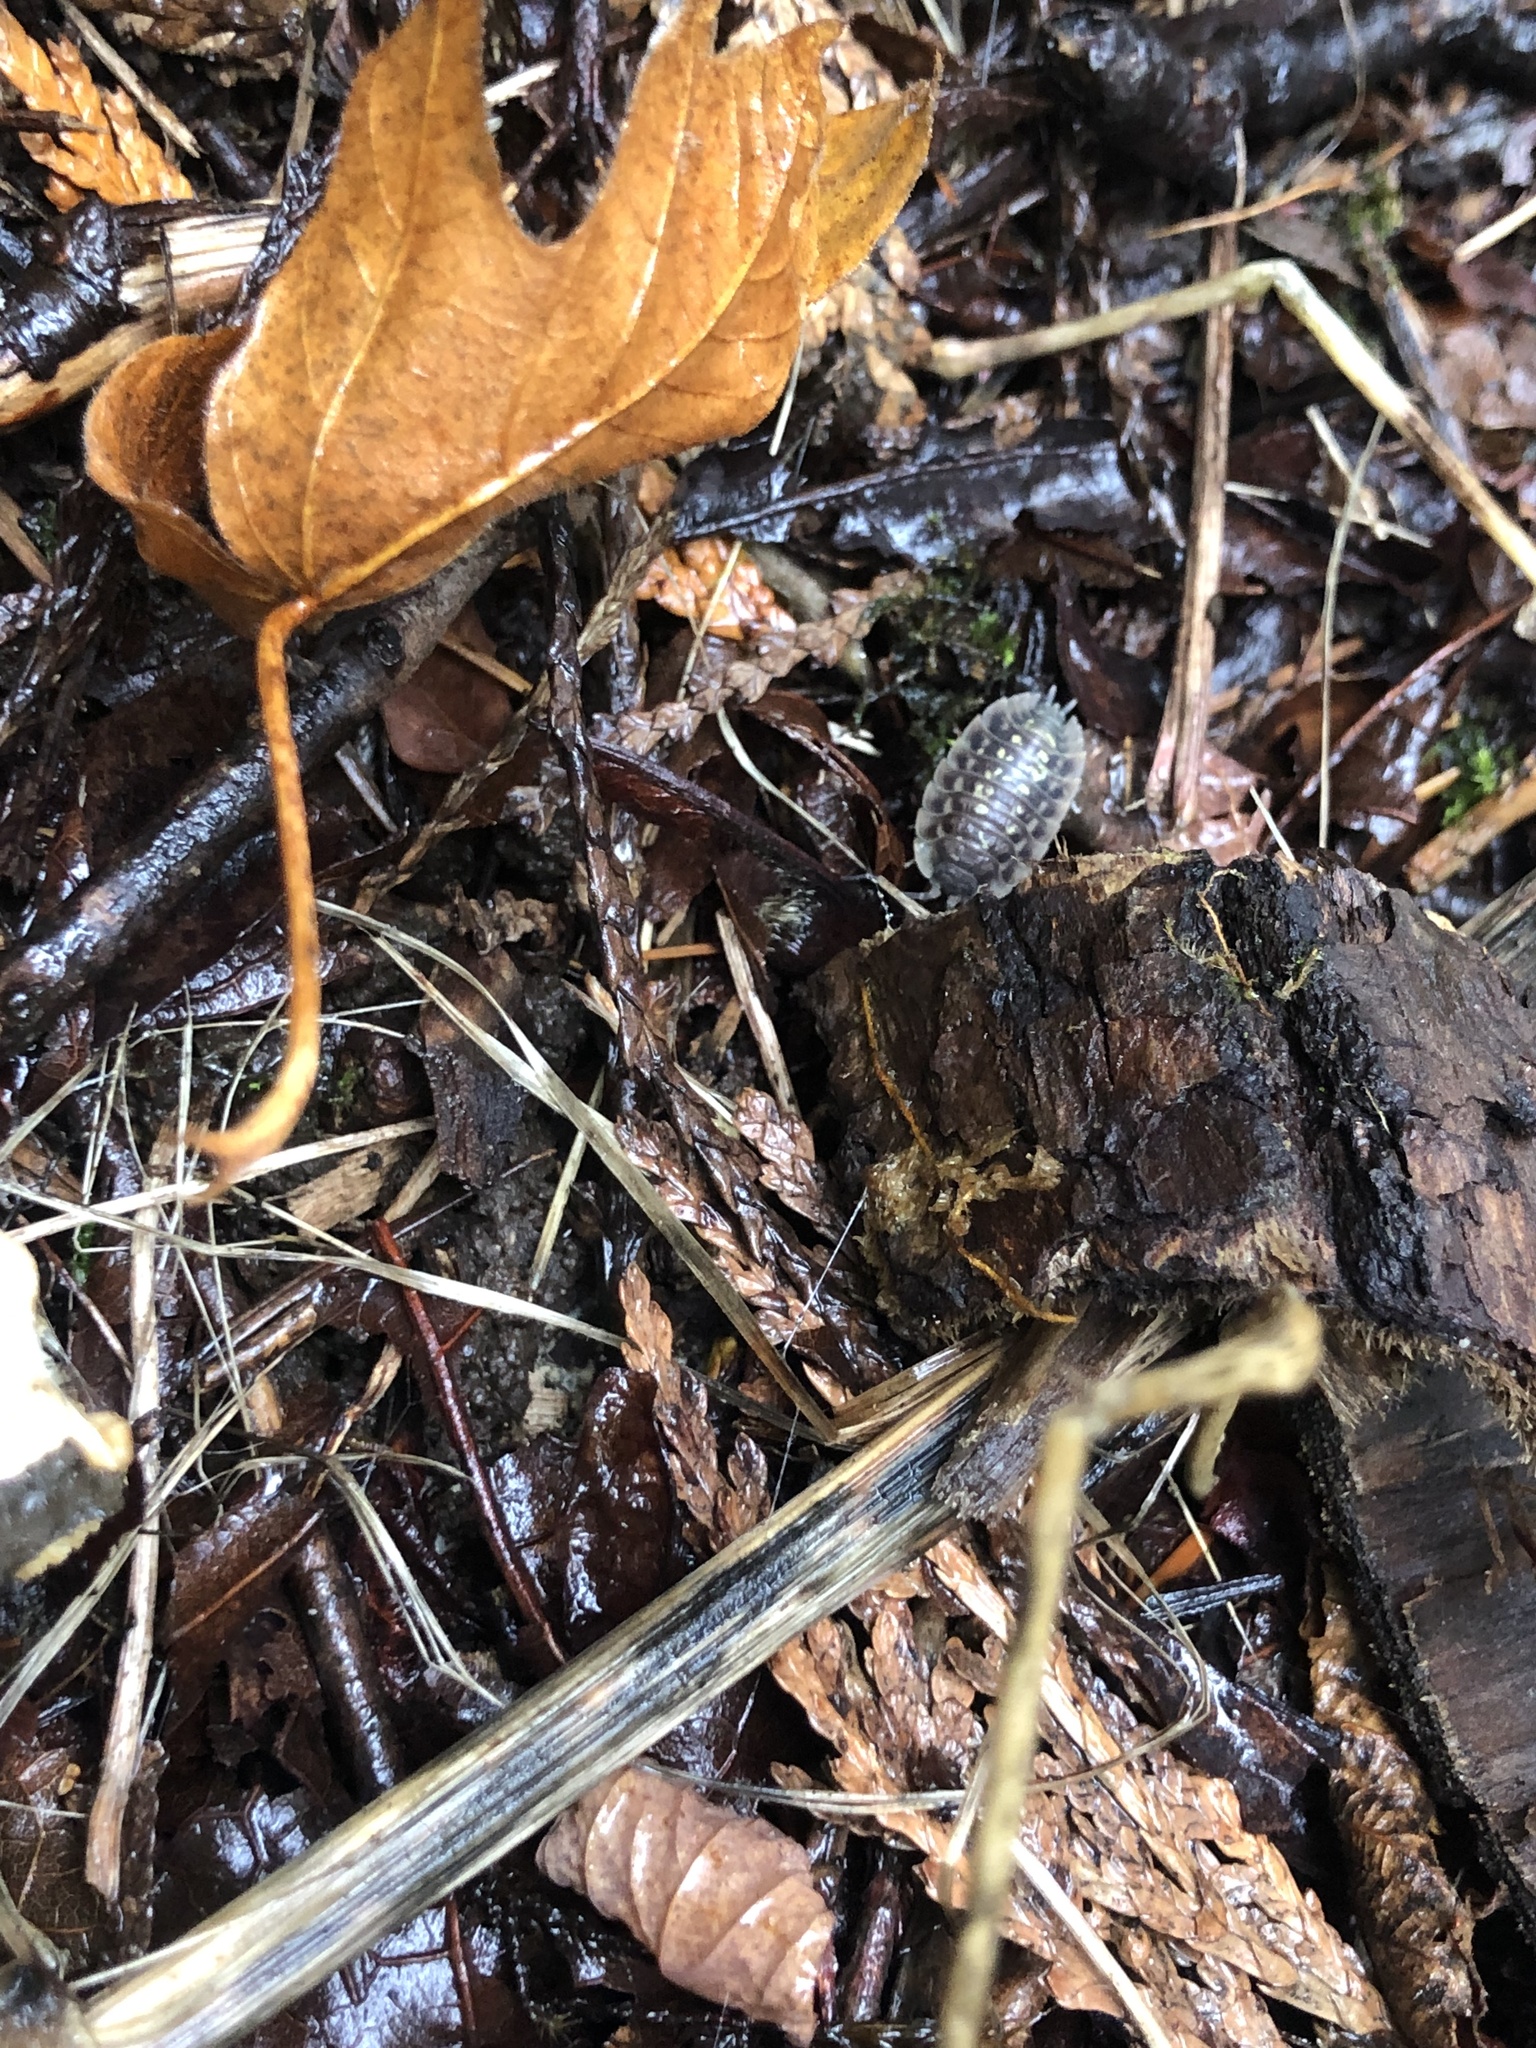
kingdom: Animalia
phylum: Arthropoda
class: Malacostraca
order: Isopoda
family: Oniscidae
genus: Oniscus
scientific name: Oniscus asellus
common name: Common shiny woodlouse
